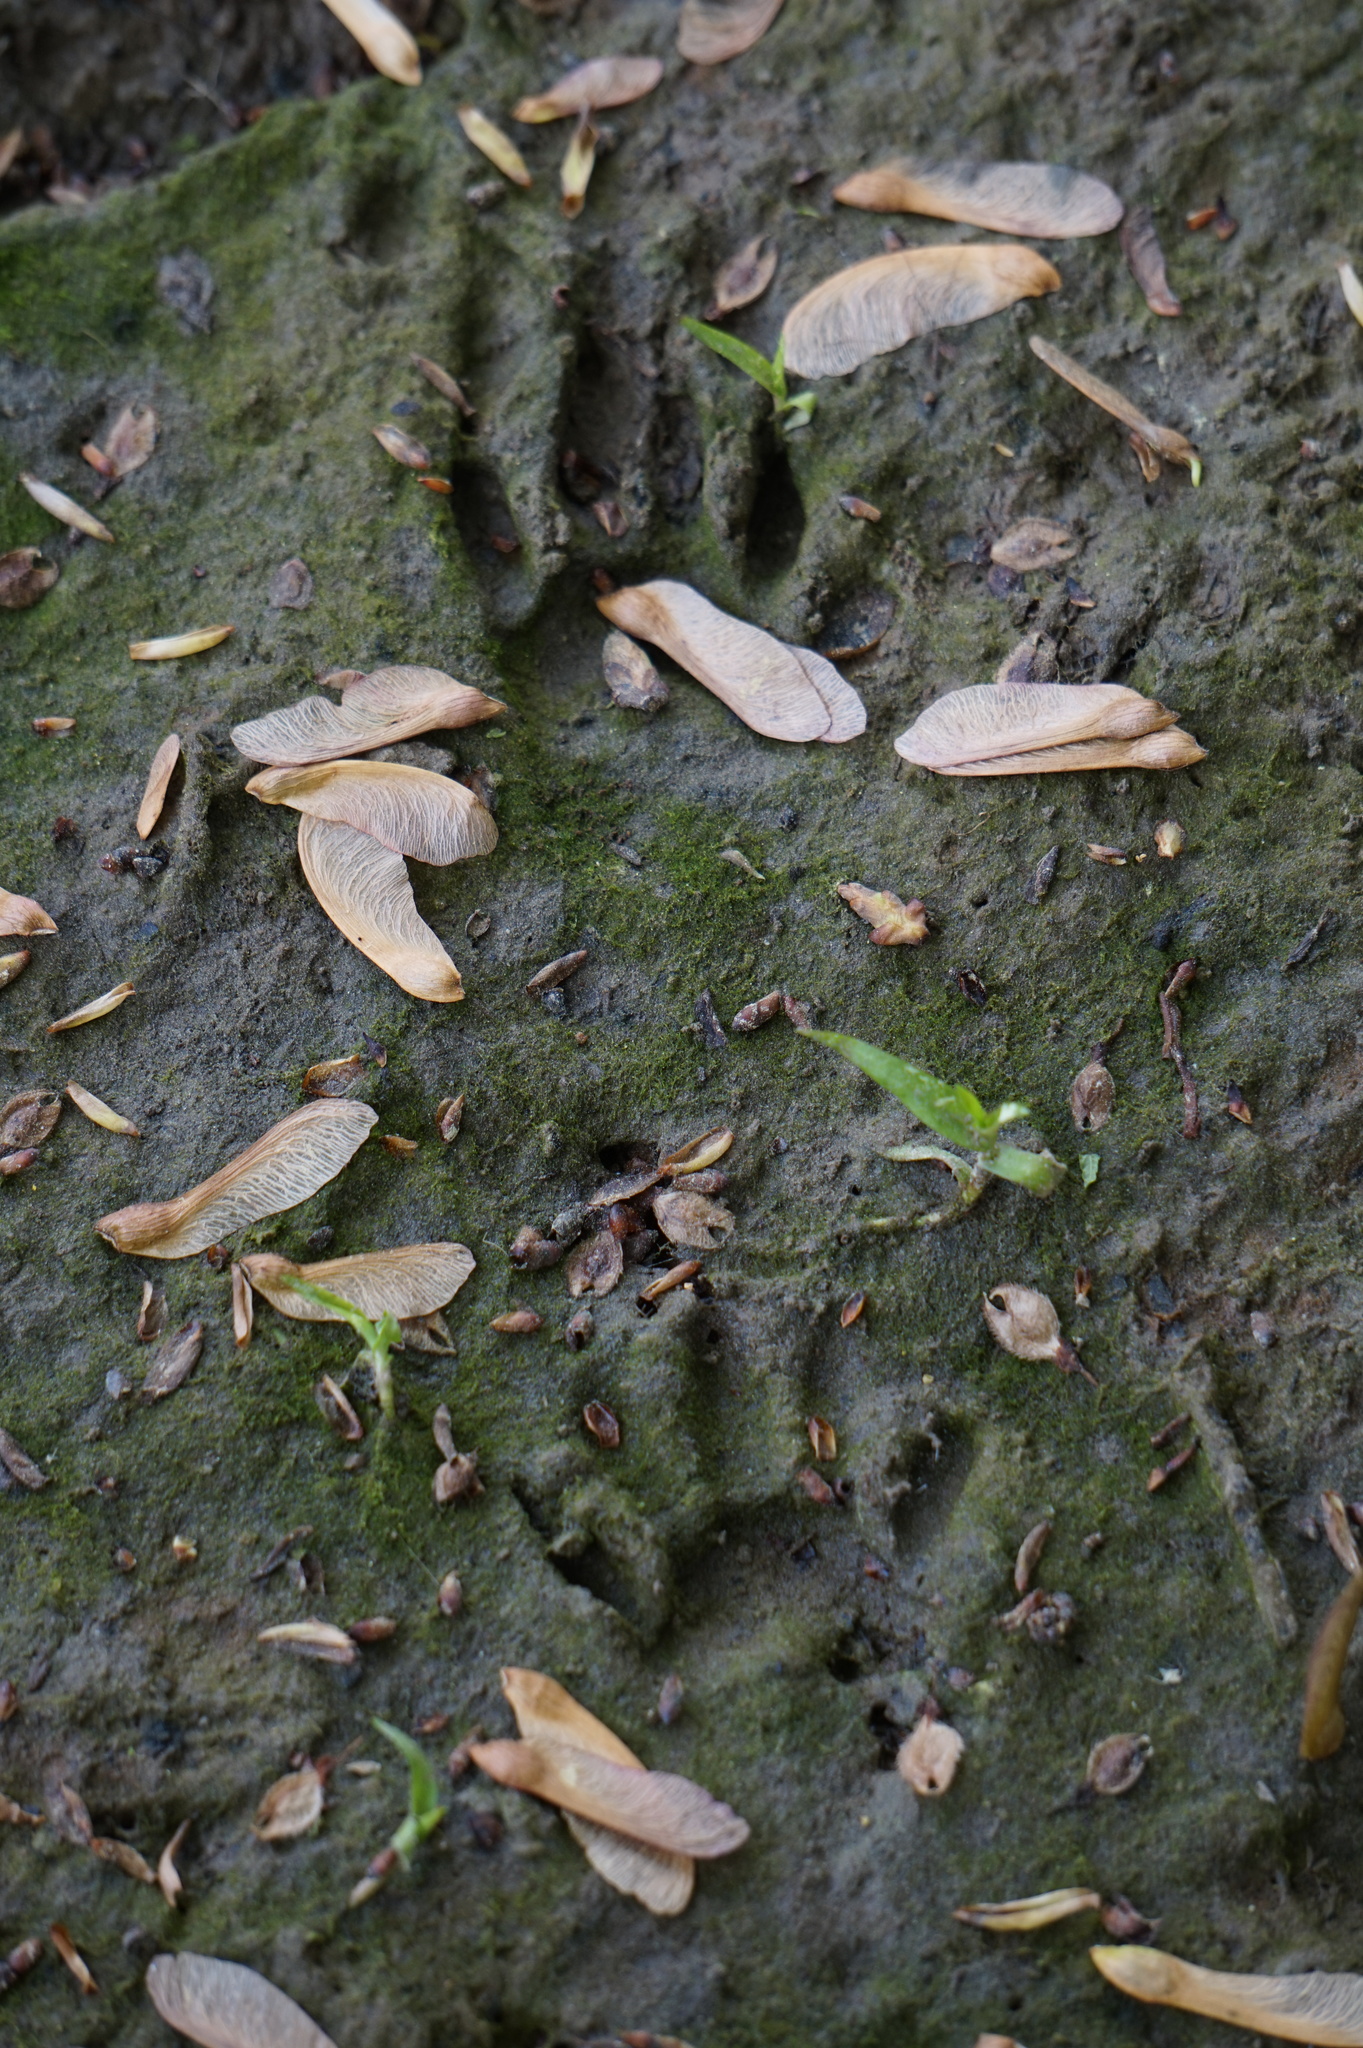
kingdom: Animalia
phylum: Chordata
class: Mammalia
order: Carnivora
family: Procyonidae
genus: Procyon
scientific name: Procyon lotor
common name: Raccoon
